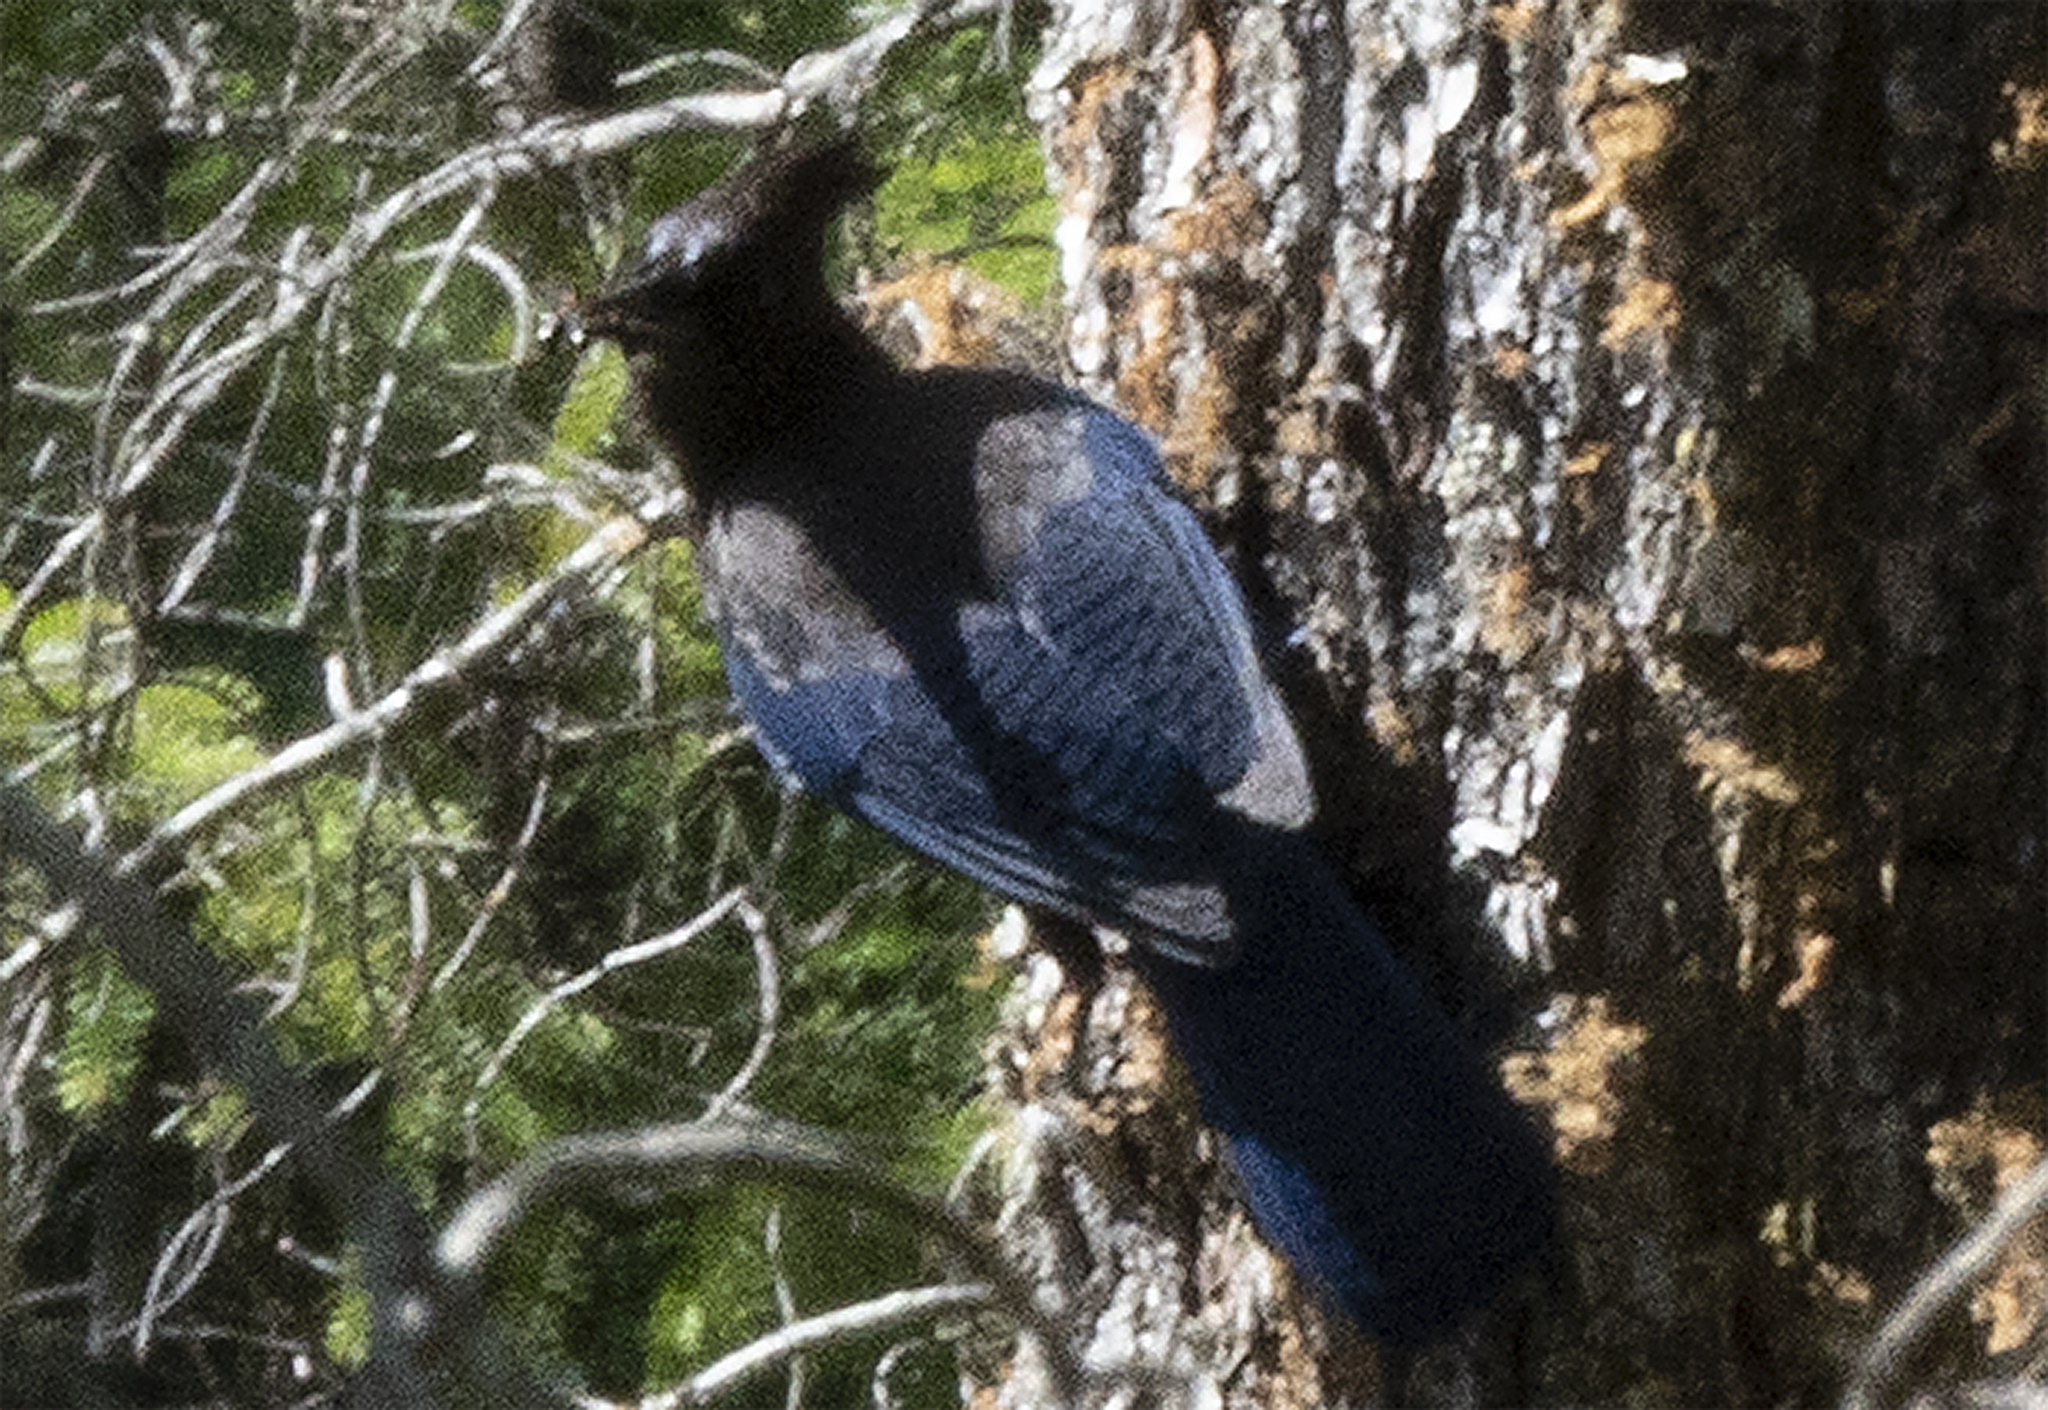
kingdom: Animalia
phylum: Chordata
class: Aves
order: Passeriformes
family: Corvidae
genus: Cyanocitta
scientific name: Cyanocitta stelleri
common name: Steller's jay
